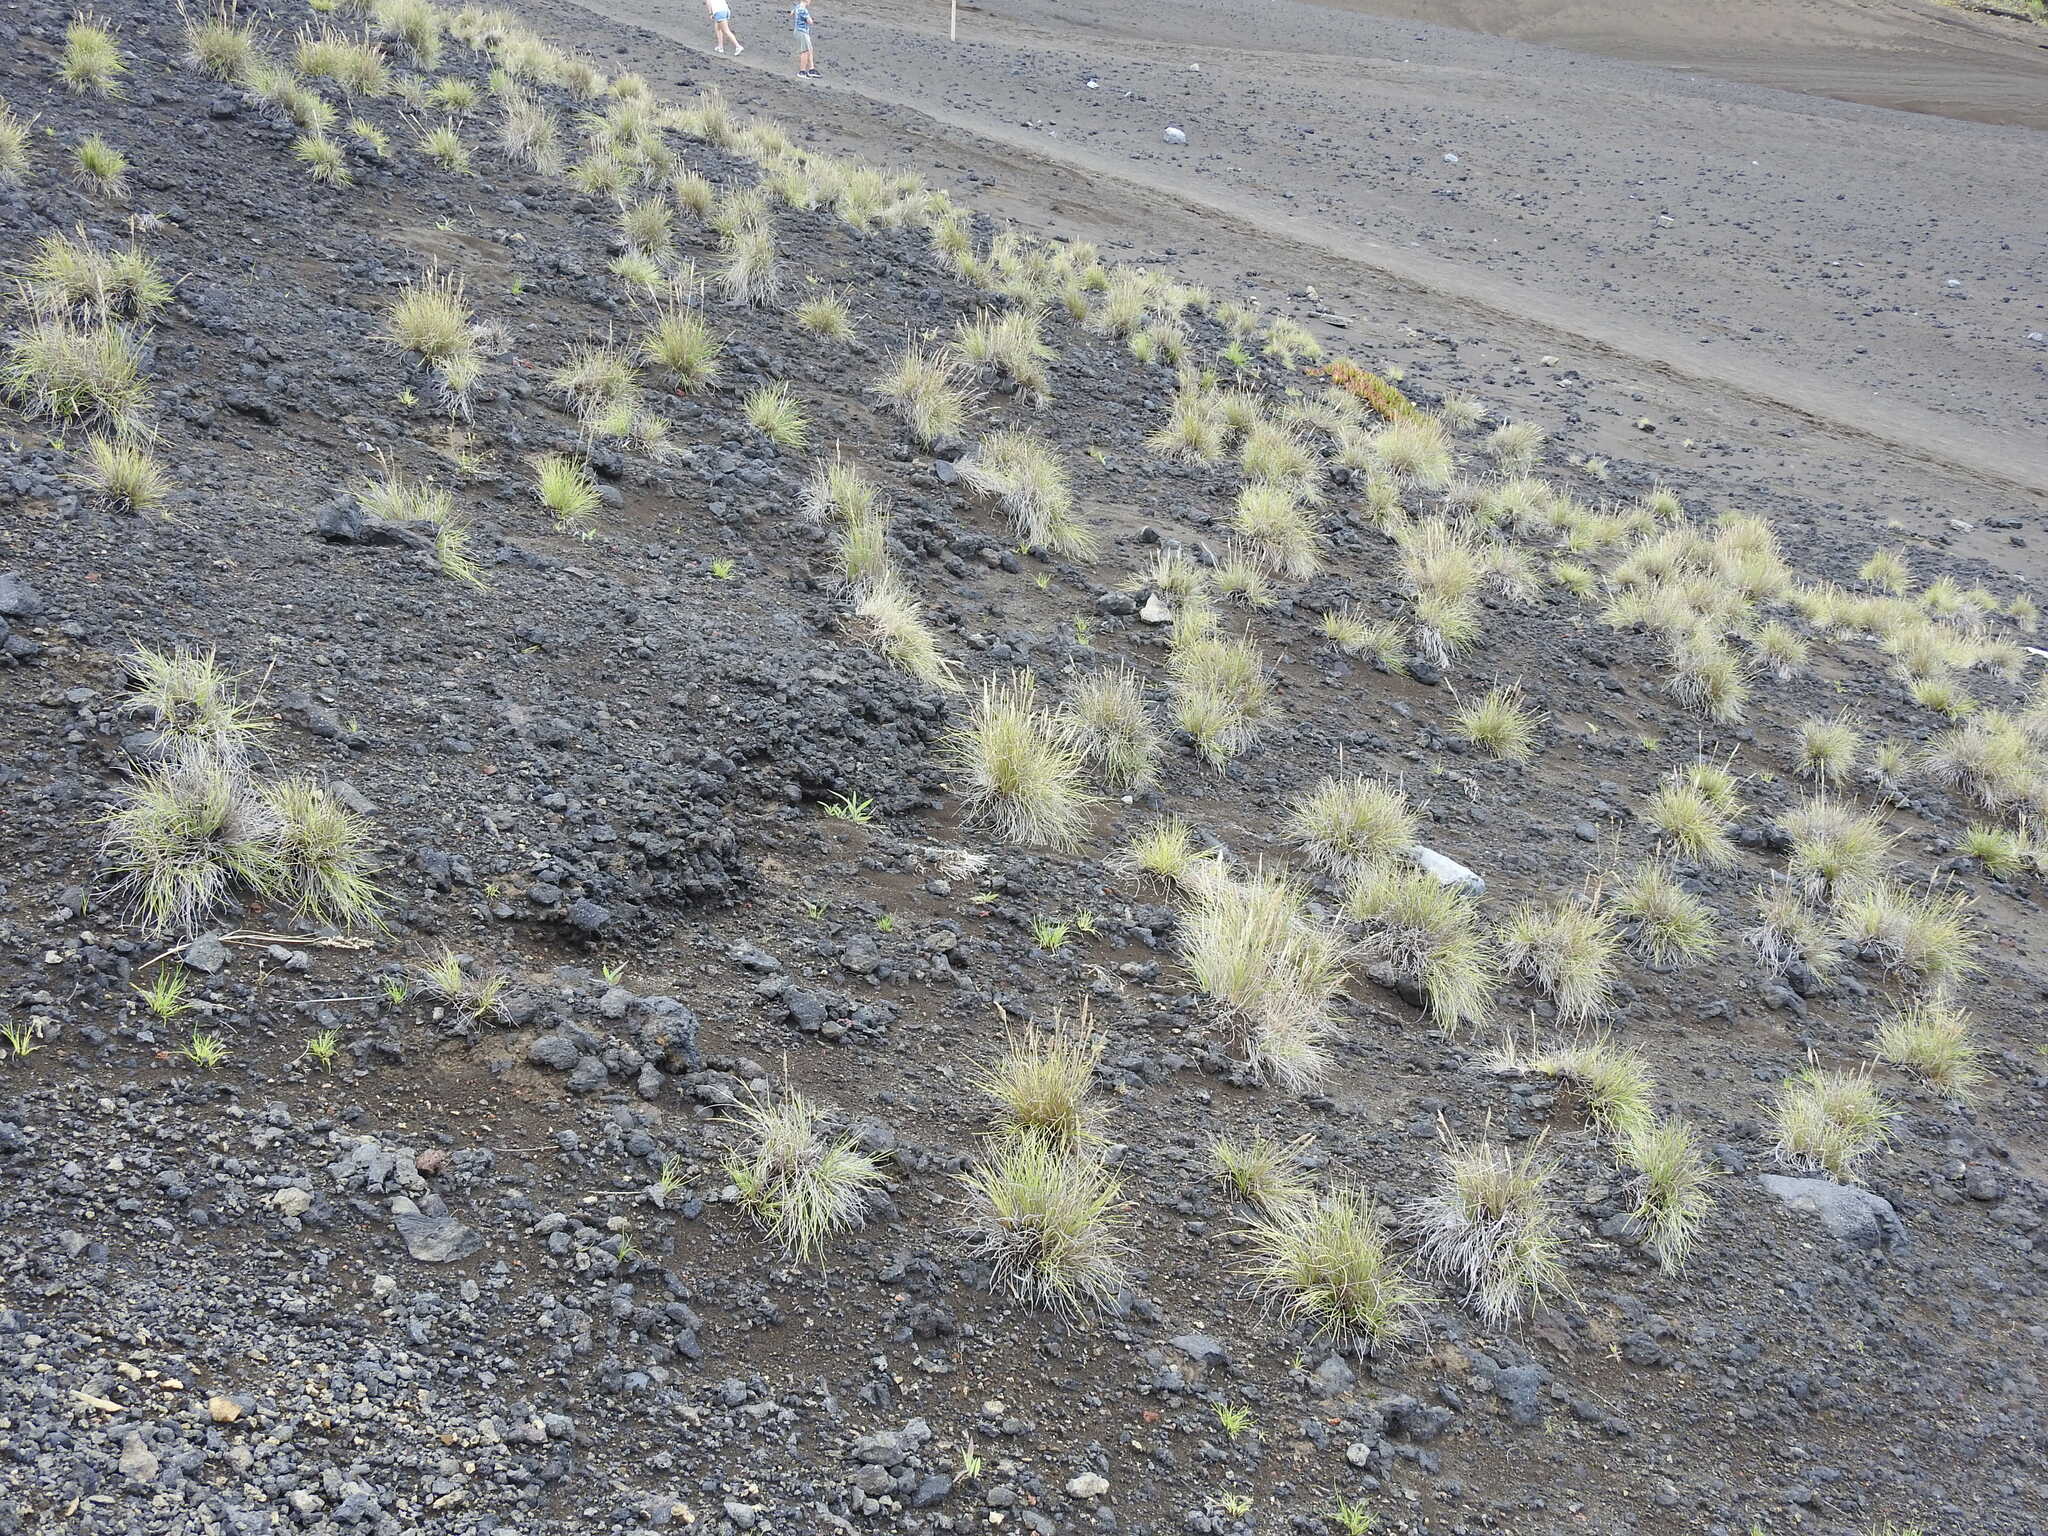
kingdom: Plantae
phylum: Tracheophyta
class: Liliopsida
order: Poales
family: Poaceae
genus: Festuca
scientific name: Festuca petraea
